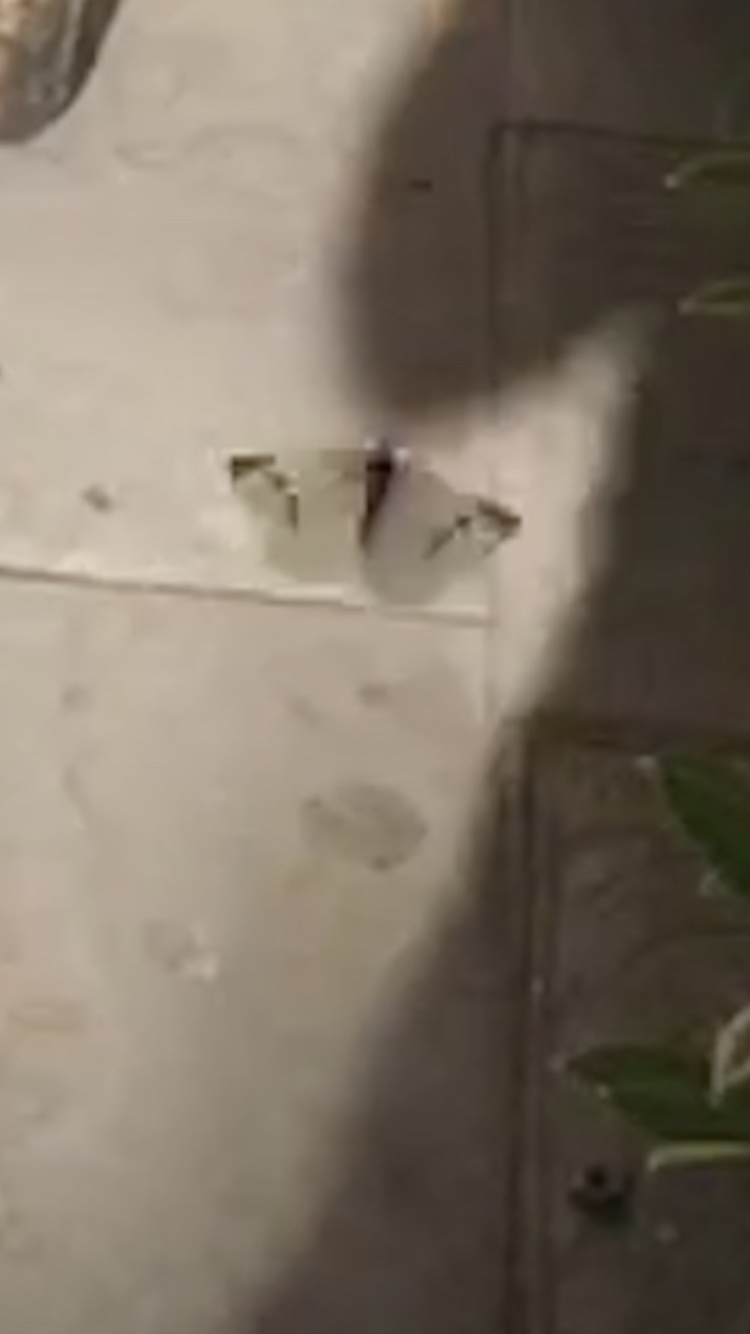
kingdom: Animalia
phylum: Arthropoda
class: Insecta
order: Lepidoptera
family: Pieridae
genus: Pieris
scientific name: Pieris rapae
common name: Small white
